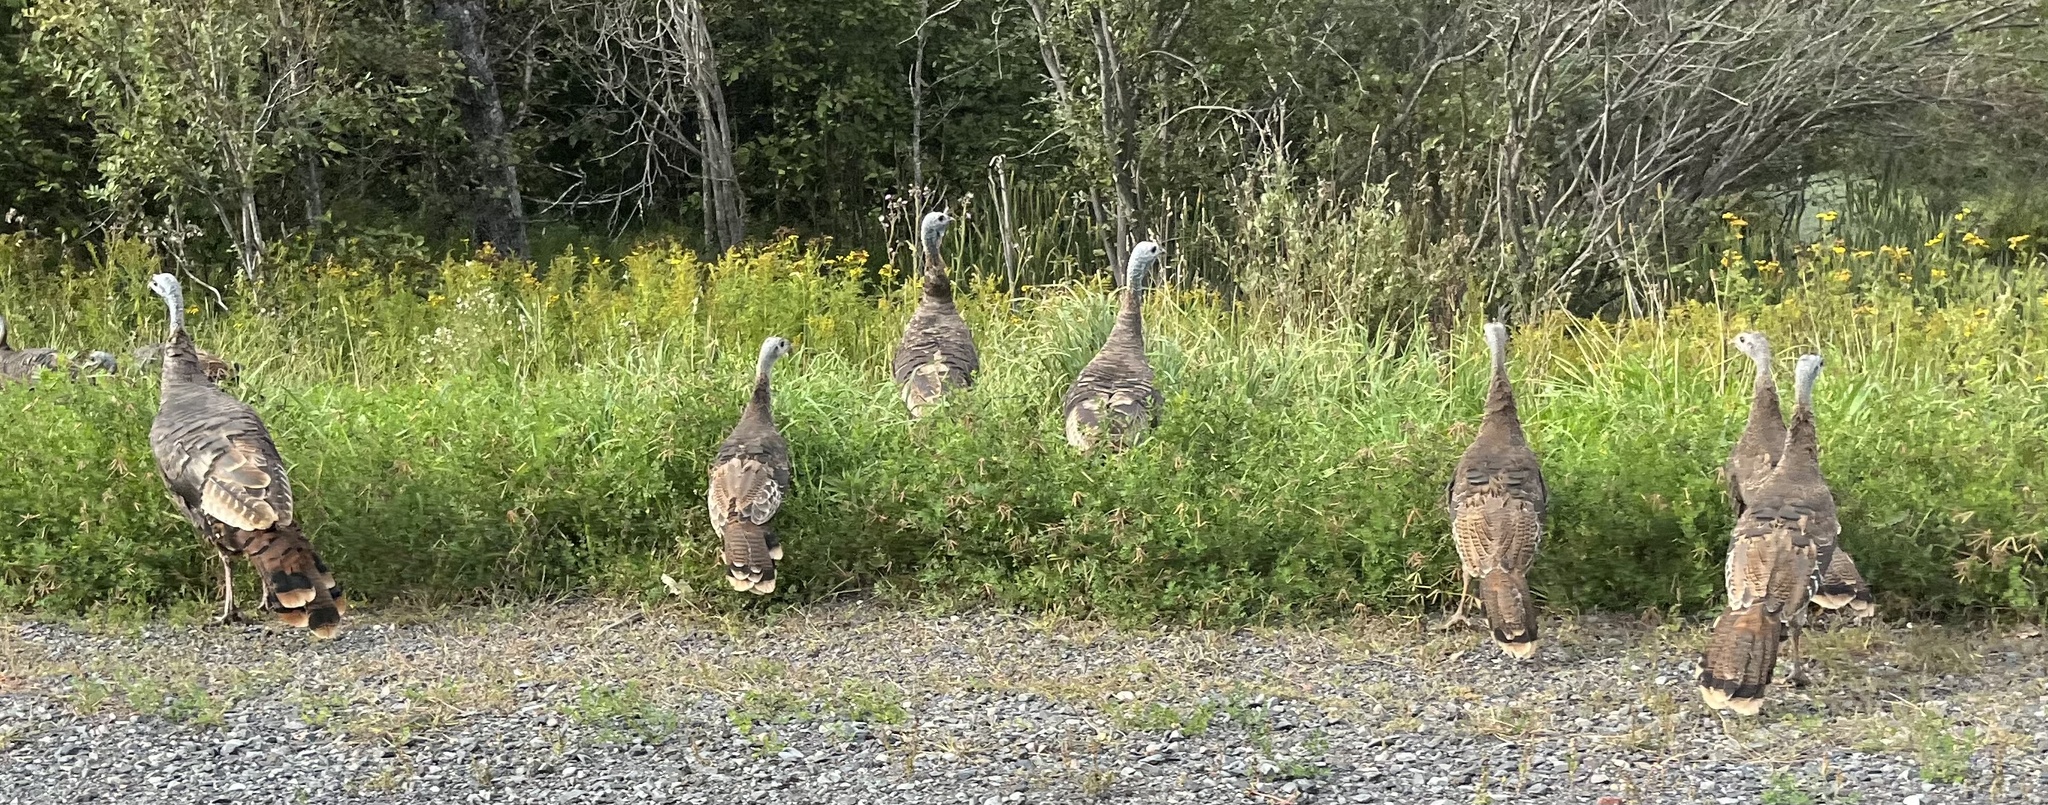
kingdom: Animalia
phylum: Chordata
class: Aves
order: Galliformes
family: Phasianidae
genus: Meleagris
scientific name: Meleagris gallopavo
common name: Wild turkey
